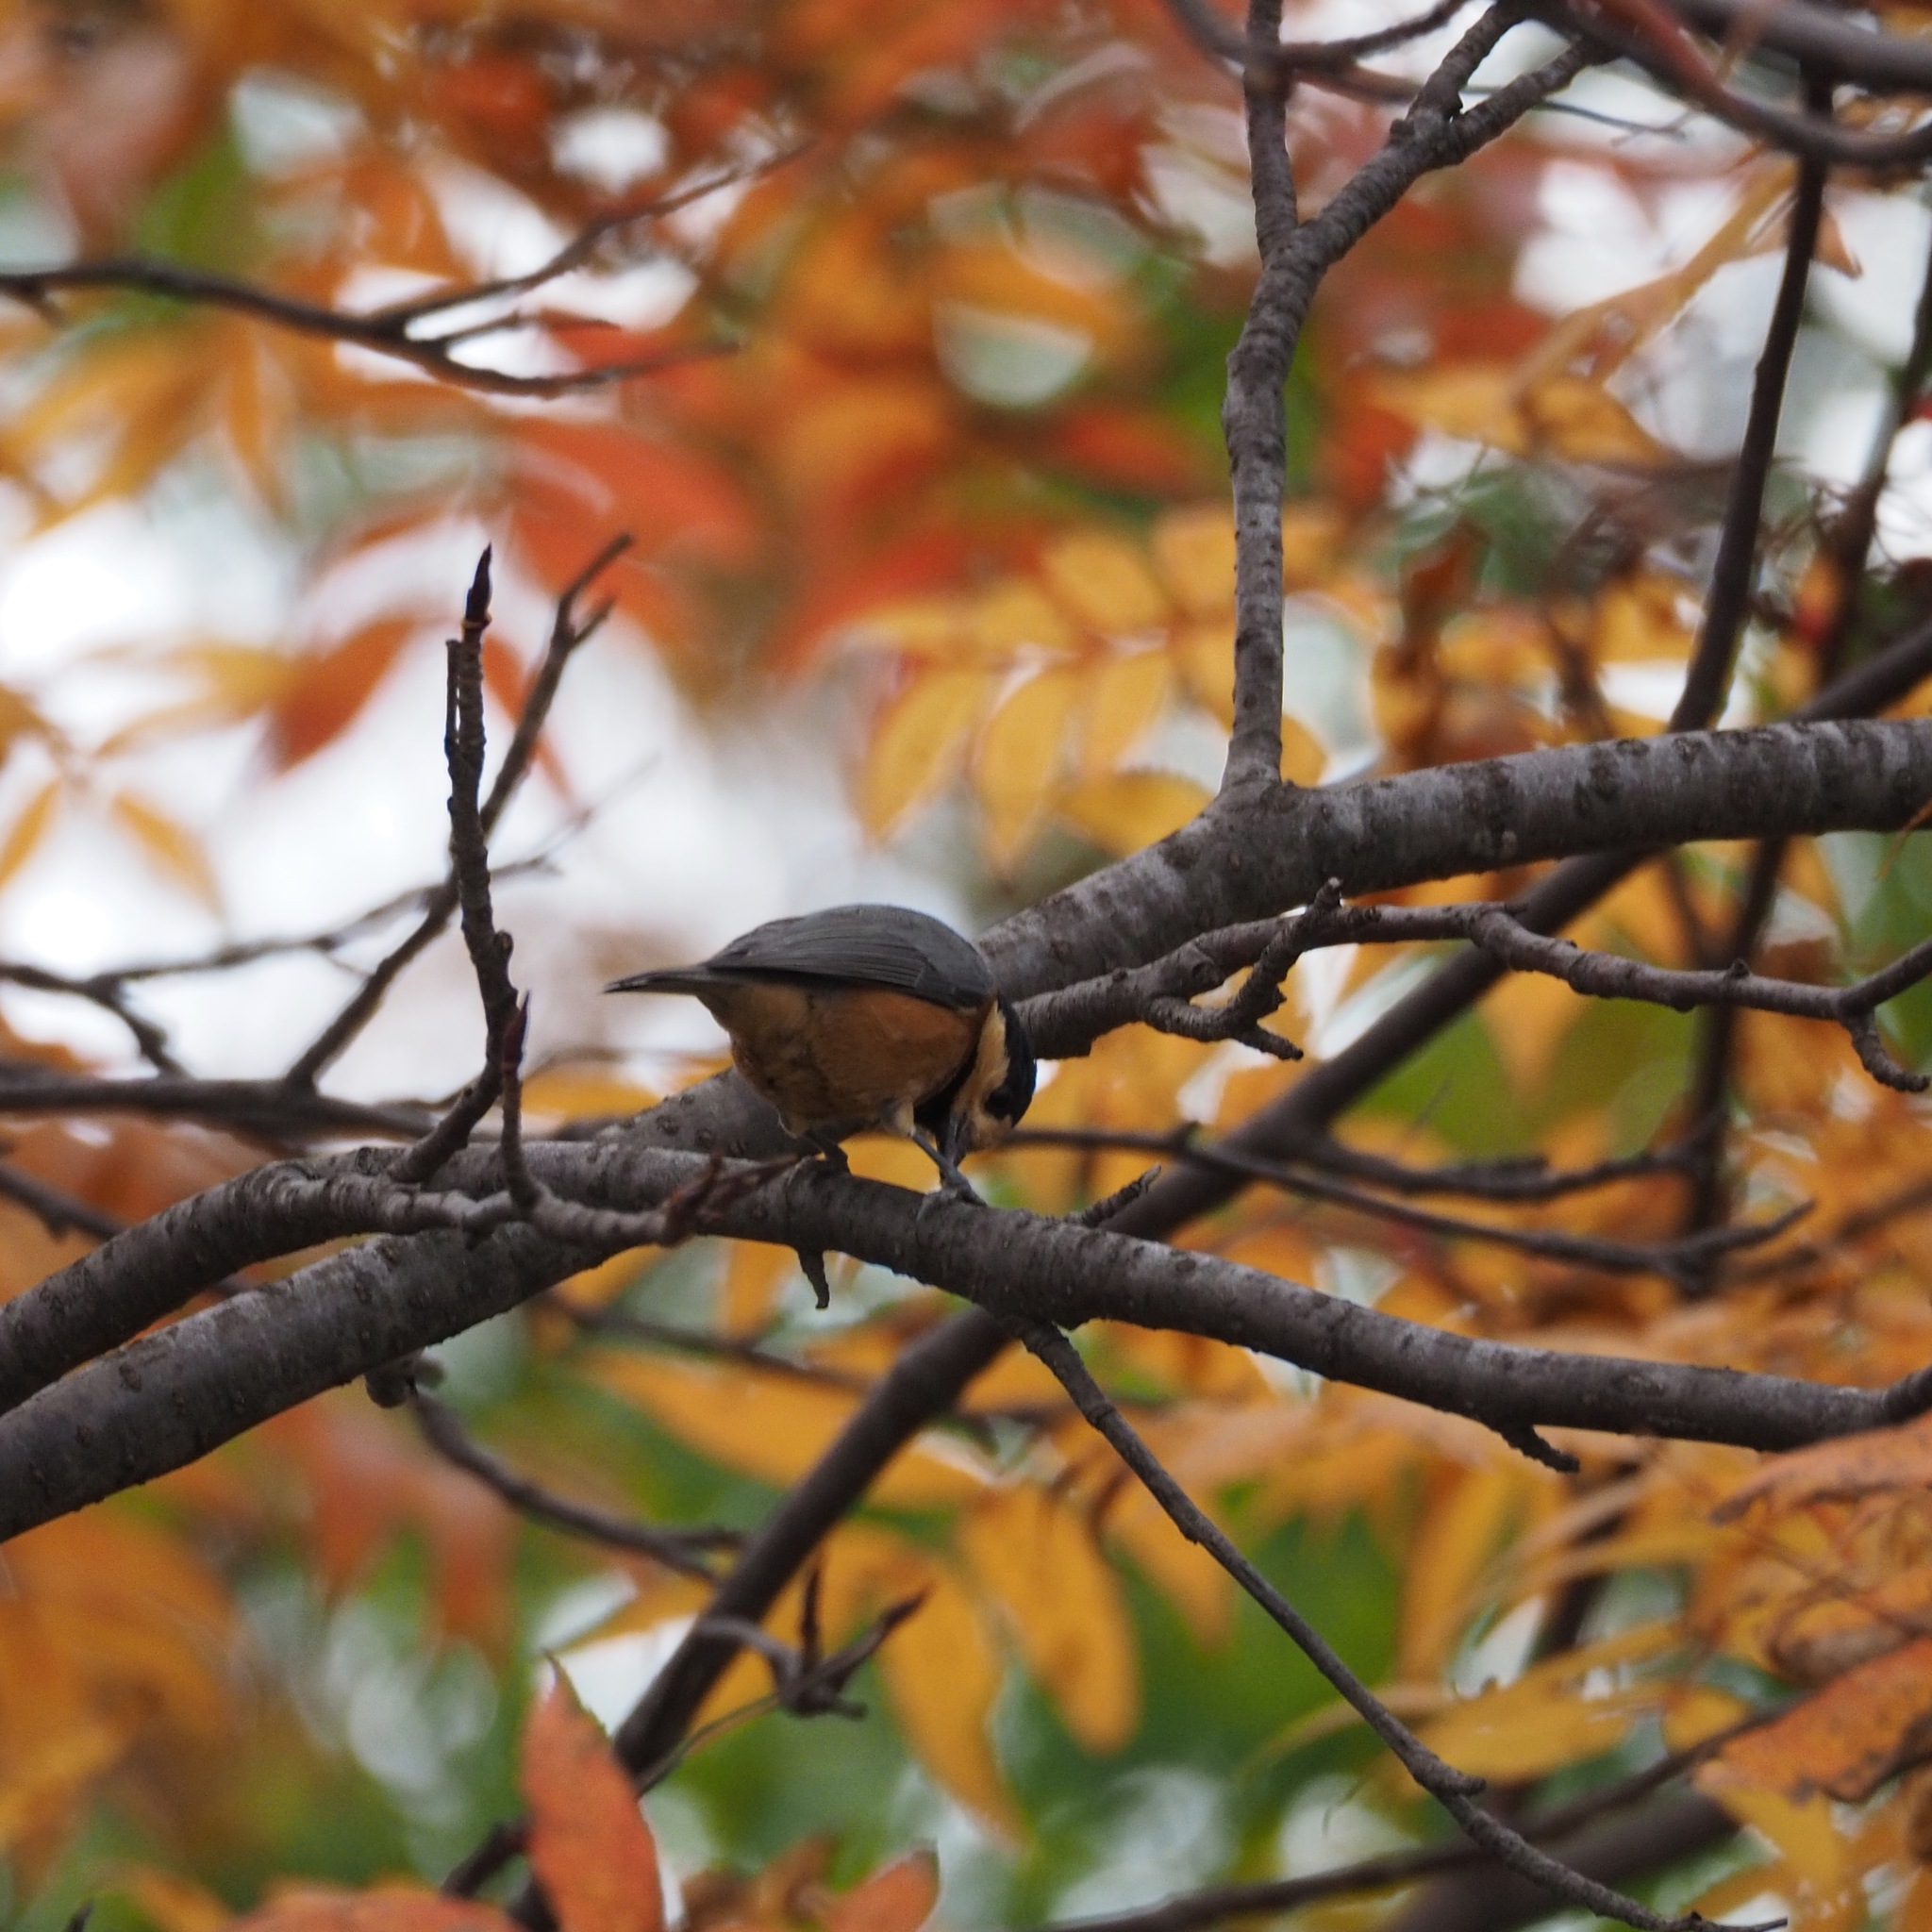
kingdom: Animalia
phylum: Chordata
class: Aves
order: Passeriformes
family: Paridae
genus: Poecile
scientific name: Poecile varius
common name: Varied tit
